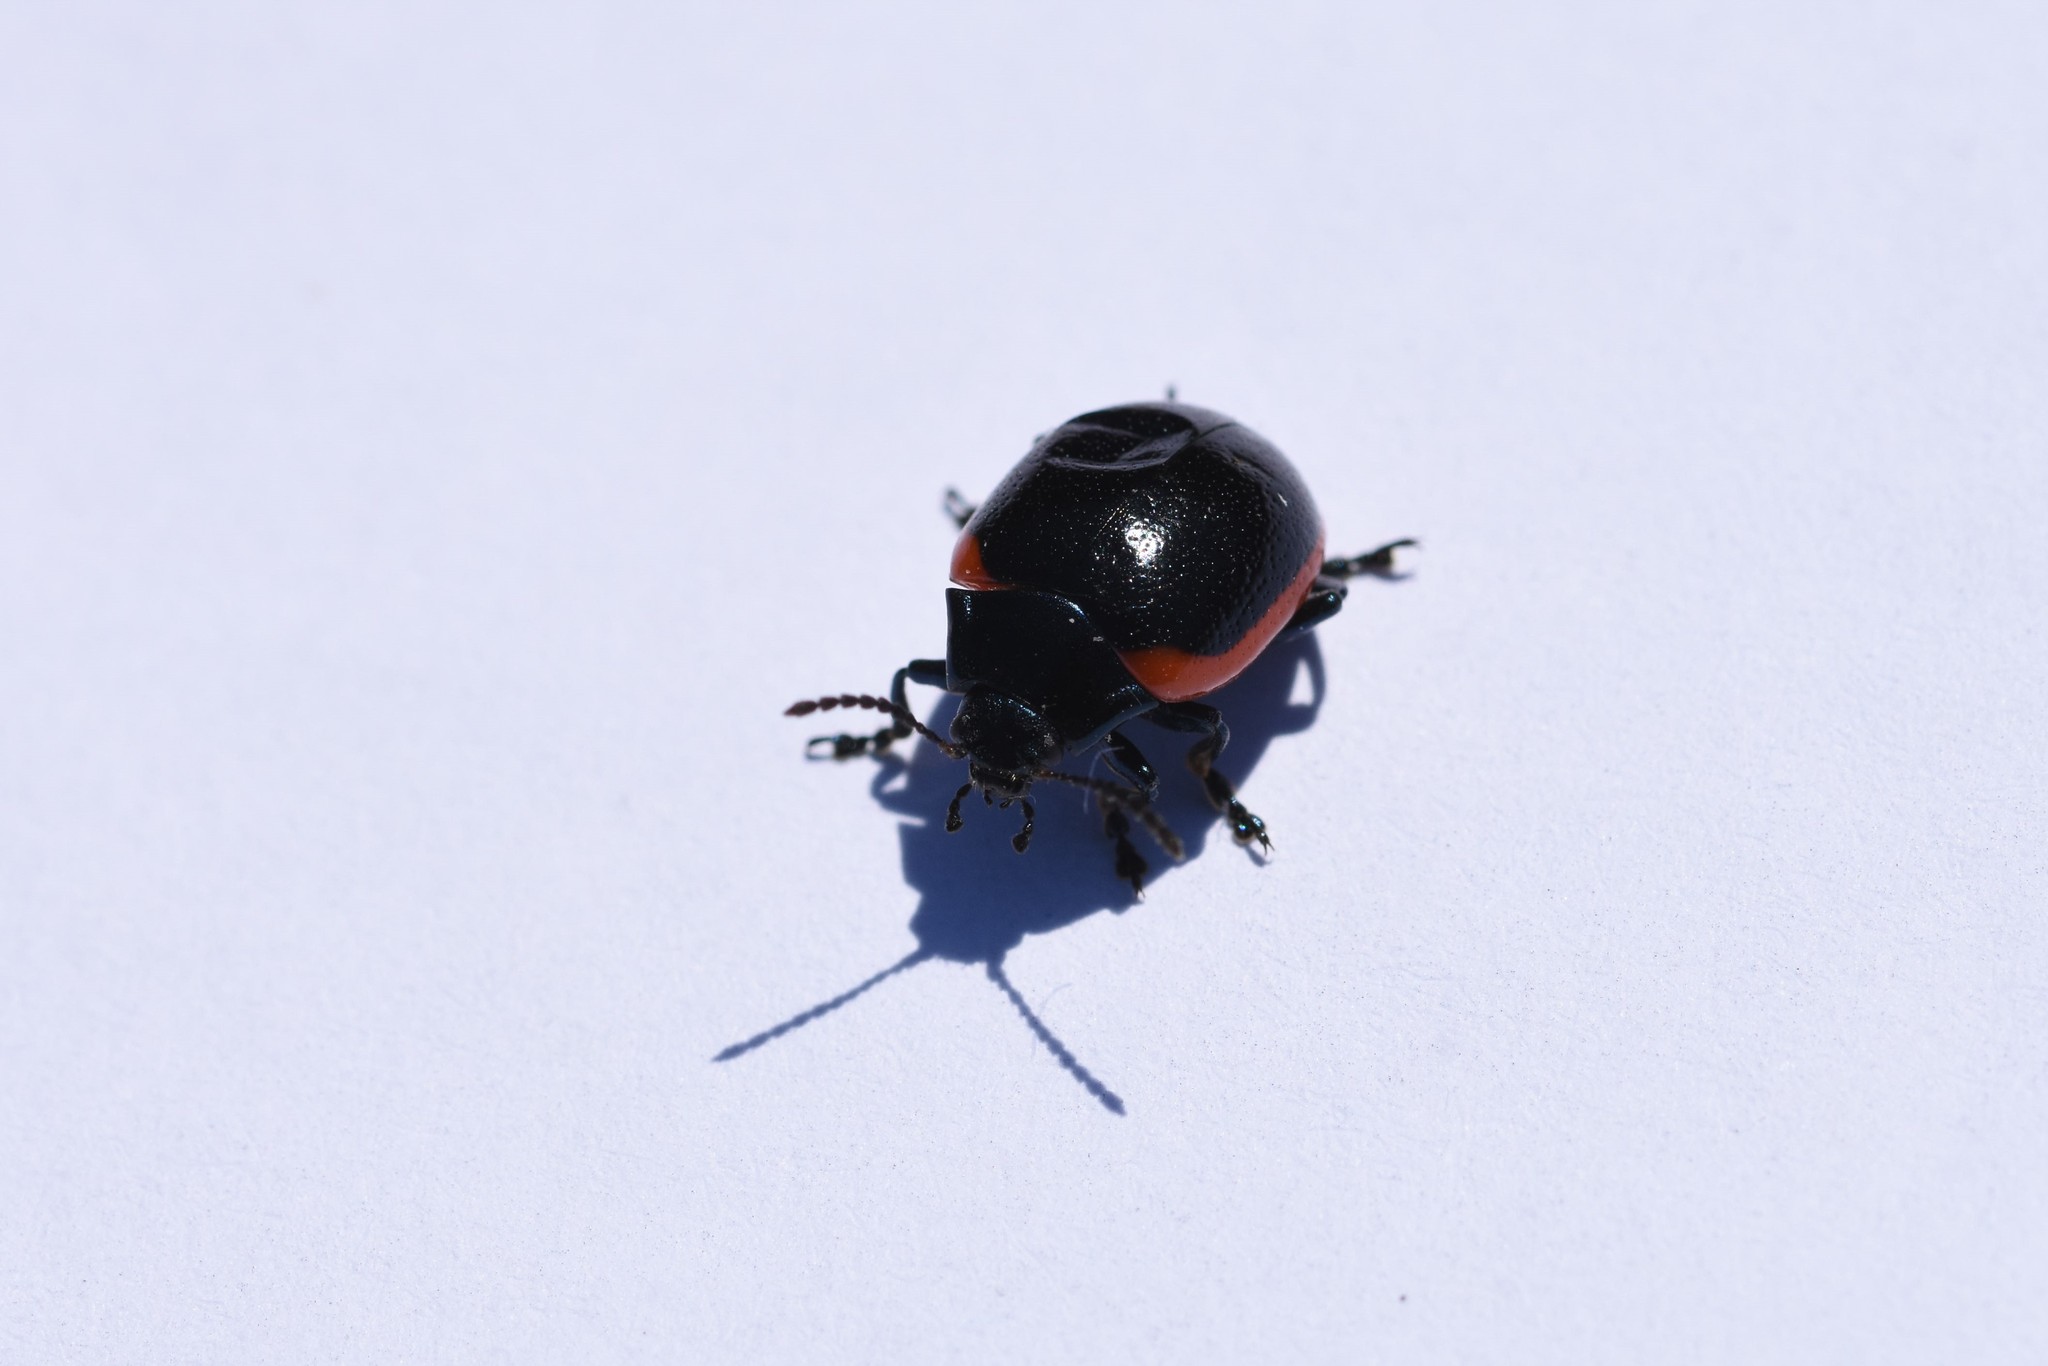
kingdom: Animalia
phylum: Arthropoda
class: Insecta
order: Coleoptera
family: Chrysomelidae
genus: Chrysolina
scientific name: Chrysolina rossia
